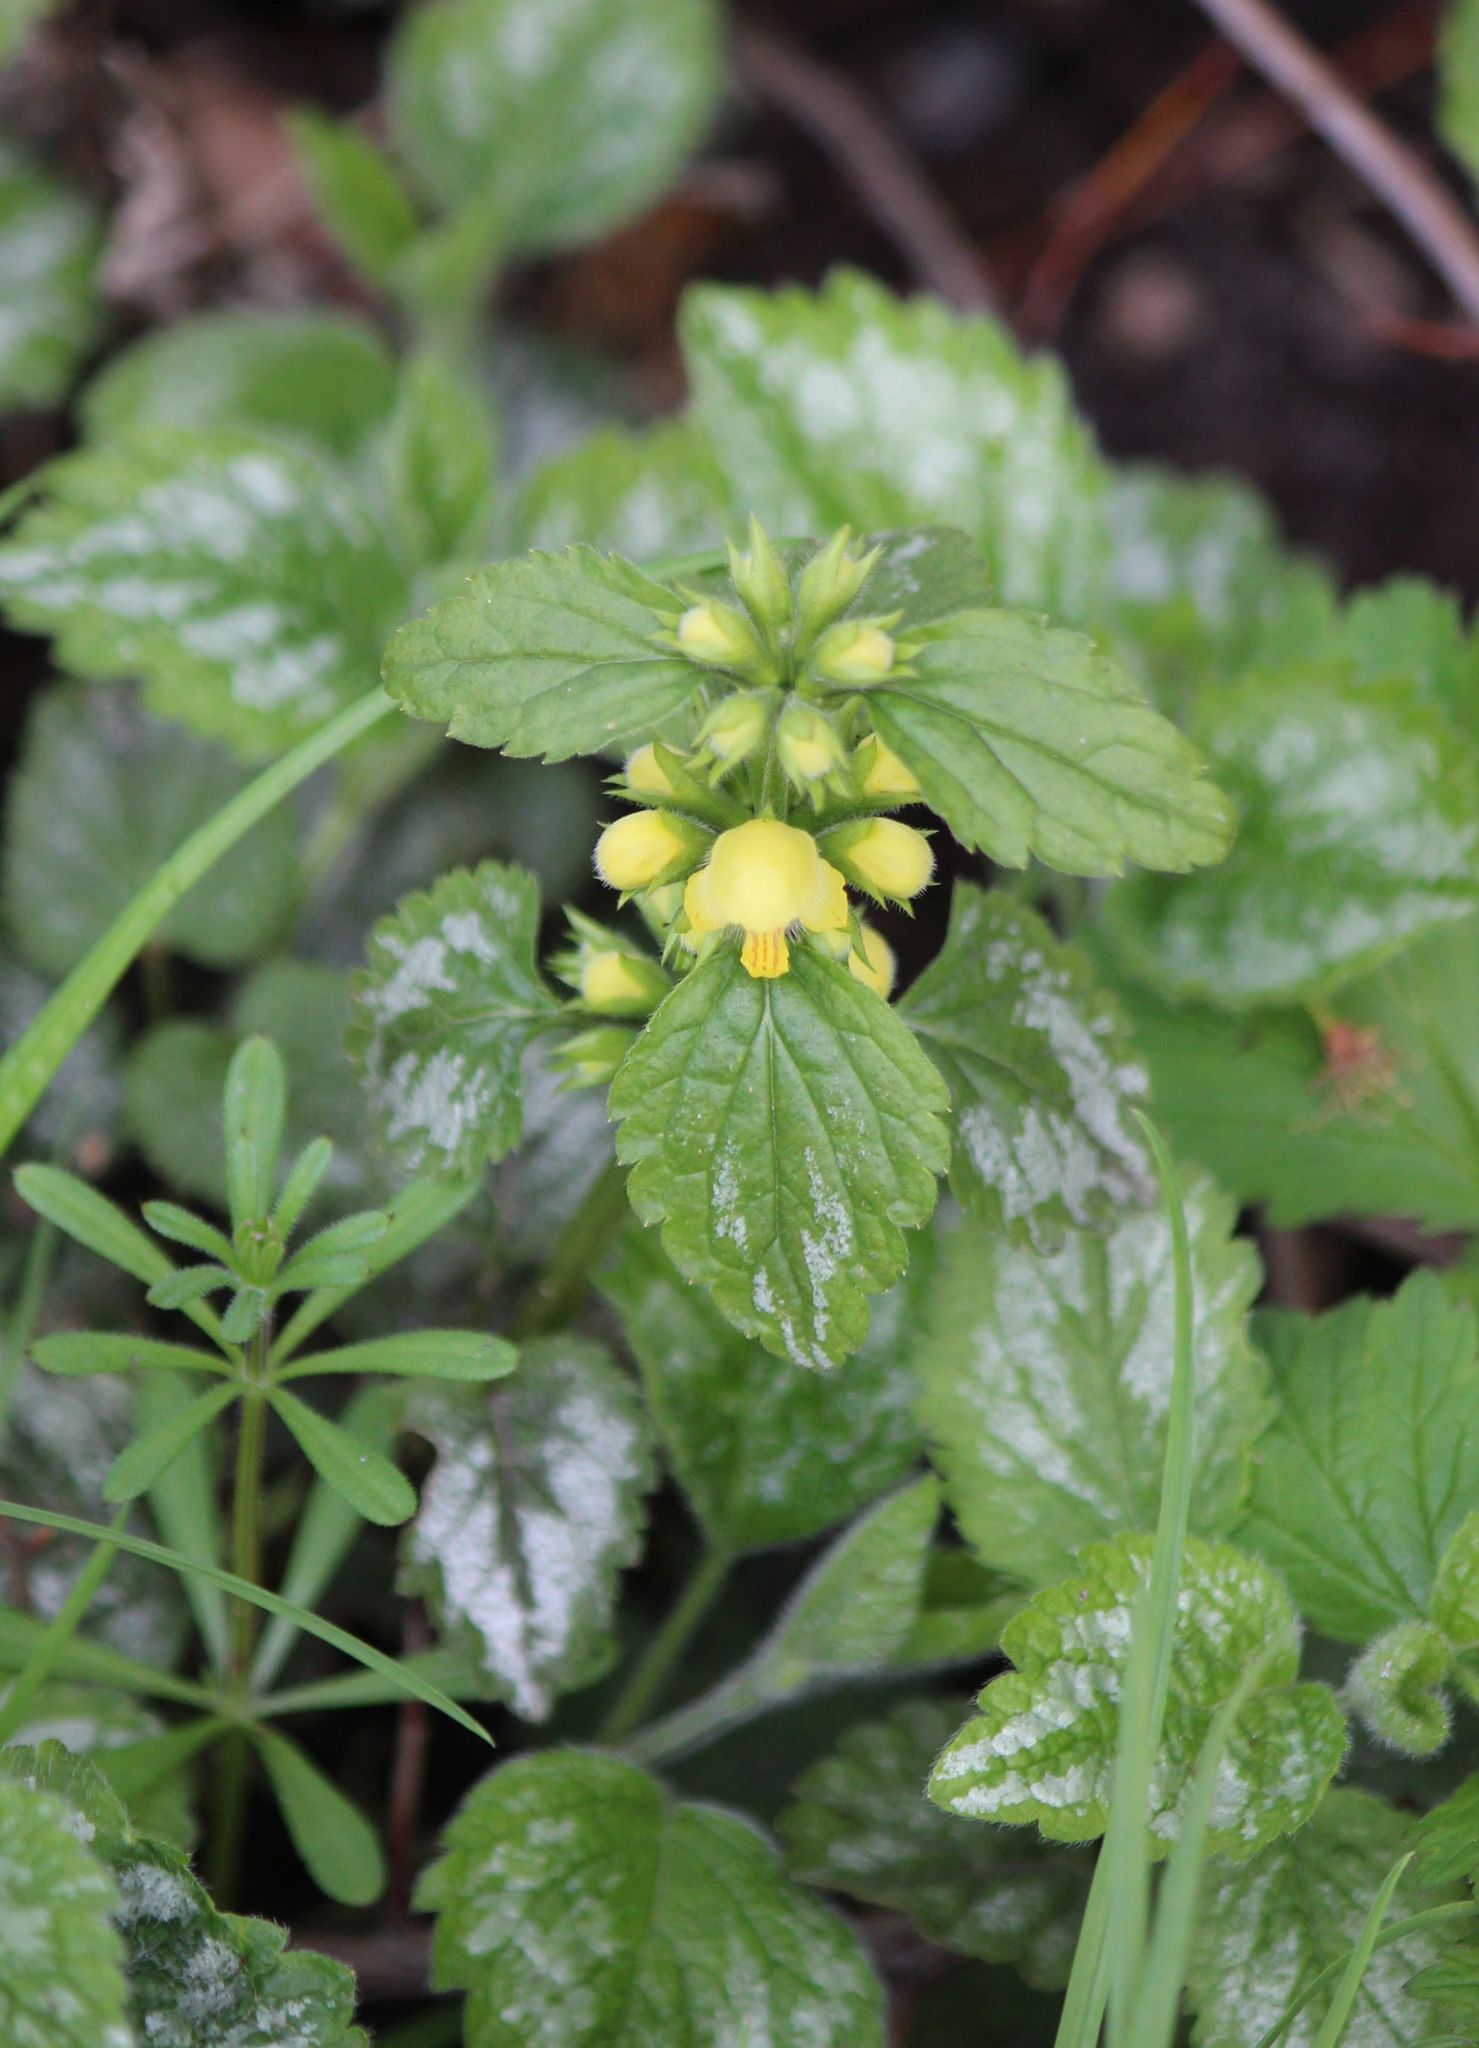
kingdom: Plantae
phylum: Tracheophyta
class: Magnoliopsida
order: Lamiales
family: Lamiaceae
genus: Lamium
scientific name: Lamium galeobdolon
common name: Yellow archangel
